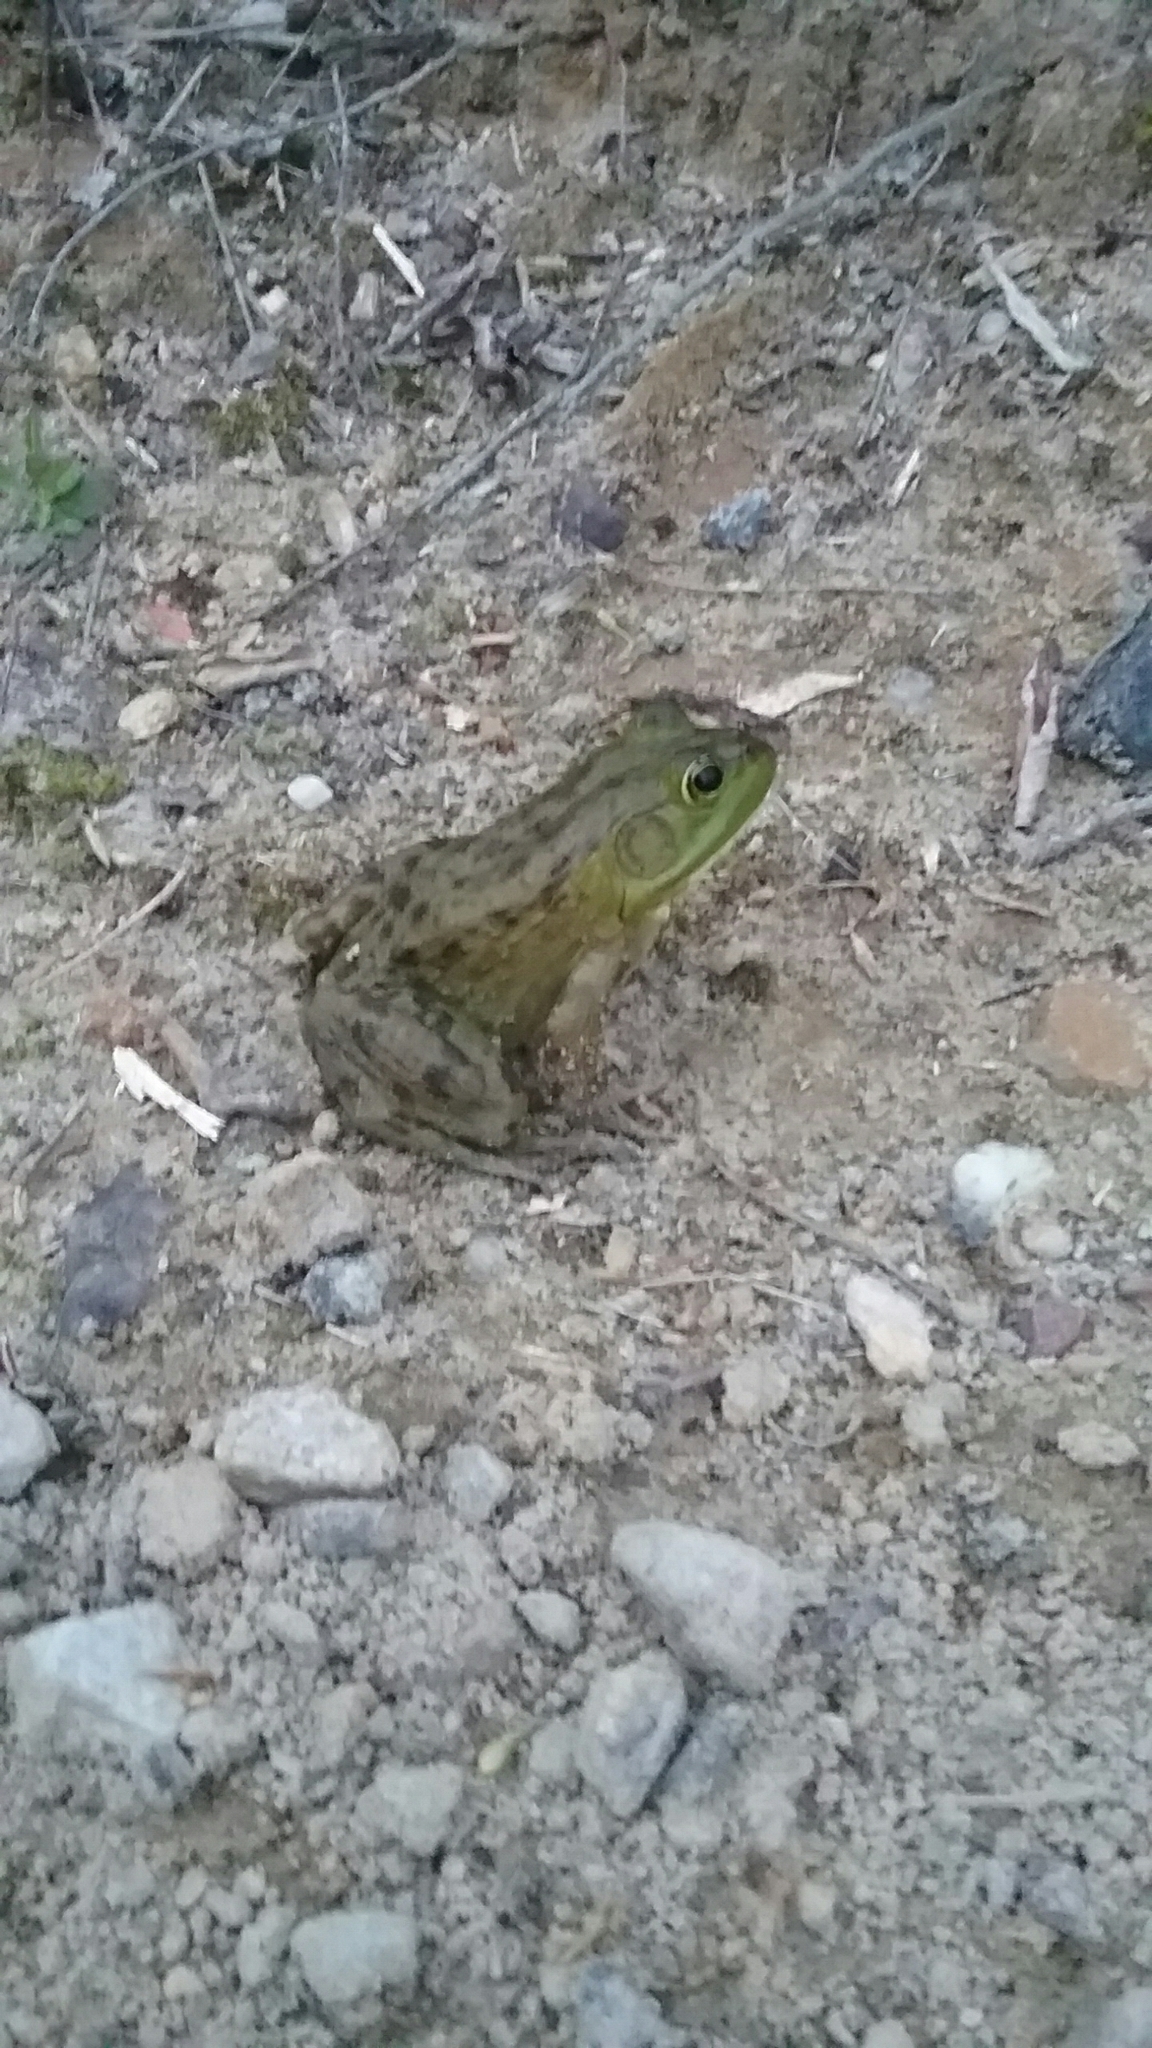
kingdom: Animalia
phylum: Chordata
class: Amphibia
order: Anura
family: Ranidae
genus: Lithobates
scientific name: Lithobates catesbeianus
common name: American bullfrog
